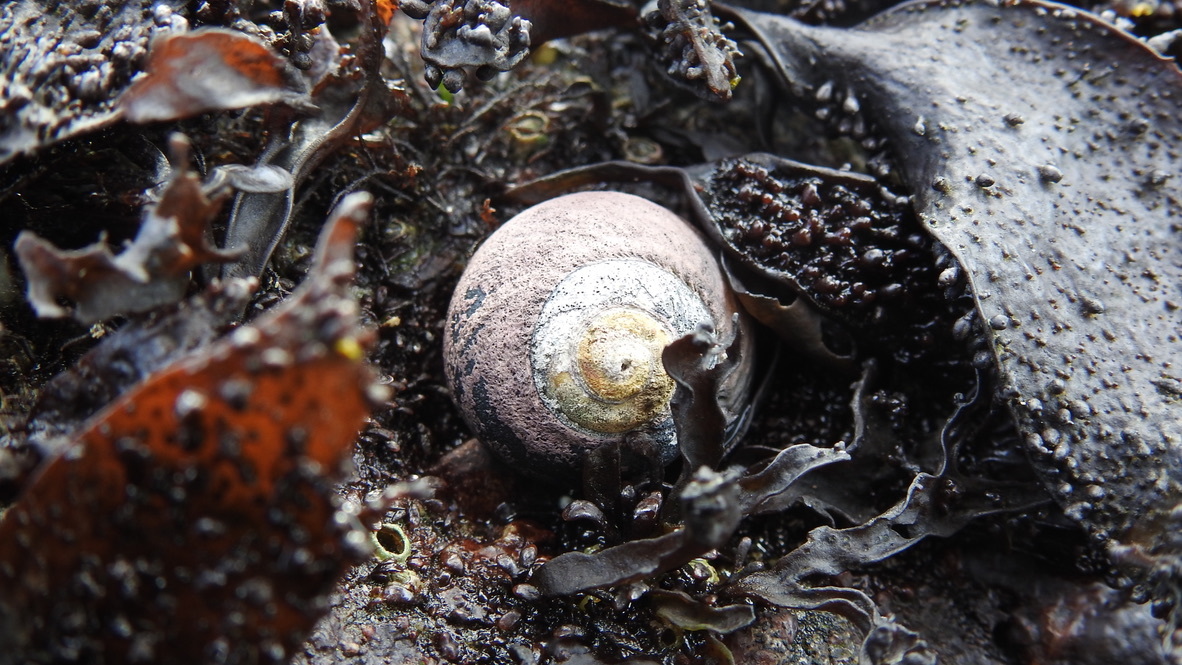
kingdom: Animalia
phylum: Mollusca
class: Gastropoda
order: Trochida
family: Tegulidae
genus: Tegula
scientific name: Tegula funebralis
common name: Black tegula
